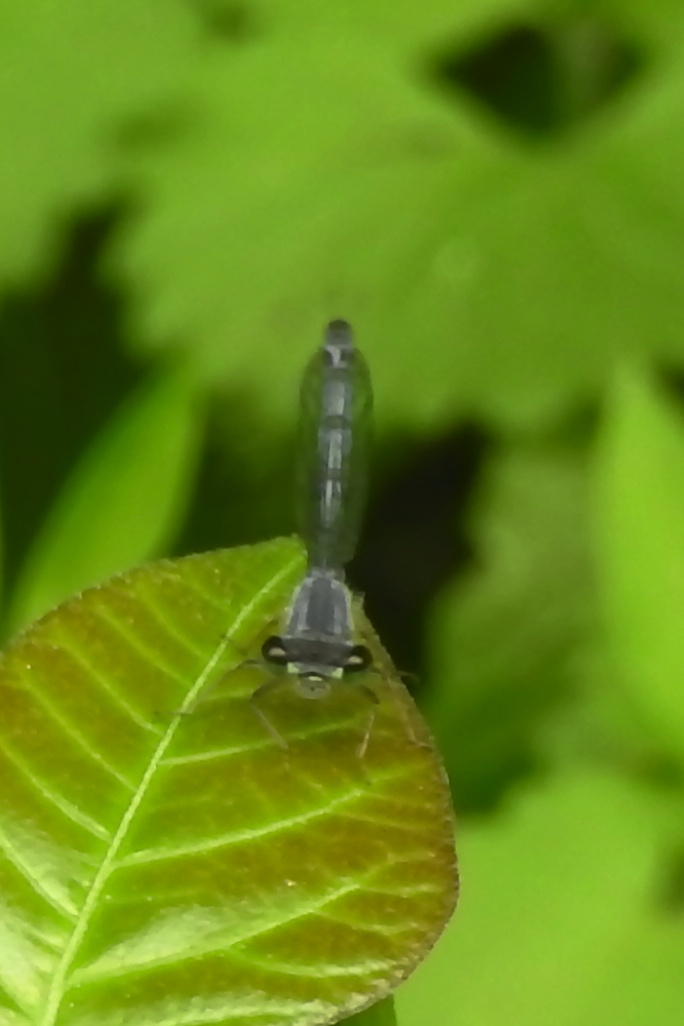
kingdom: Animalia
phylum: Arthropoda
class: Insecta
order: Odonata
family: Coenagrionidae
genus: Ischnura
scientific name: Ischnura posita
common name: Fragile forktail
